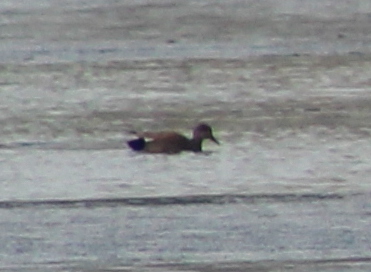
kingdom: Animalia
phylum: Chordata
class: Aves
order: Anseriformes
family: Anatidae
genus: Mareca
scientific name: Mareca strepera
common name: Gadwall
